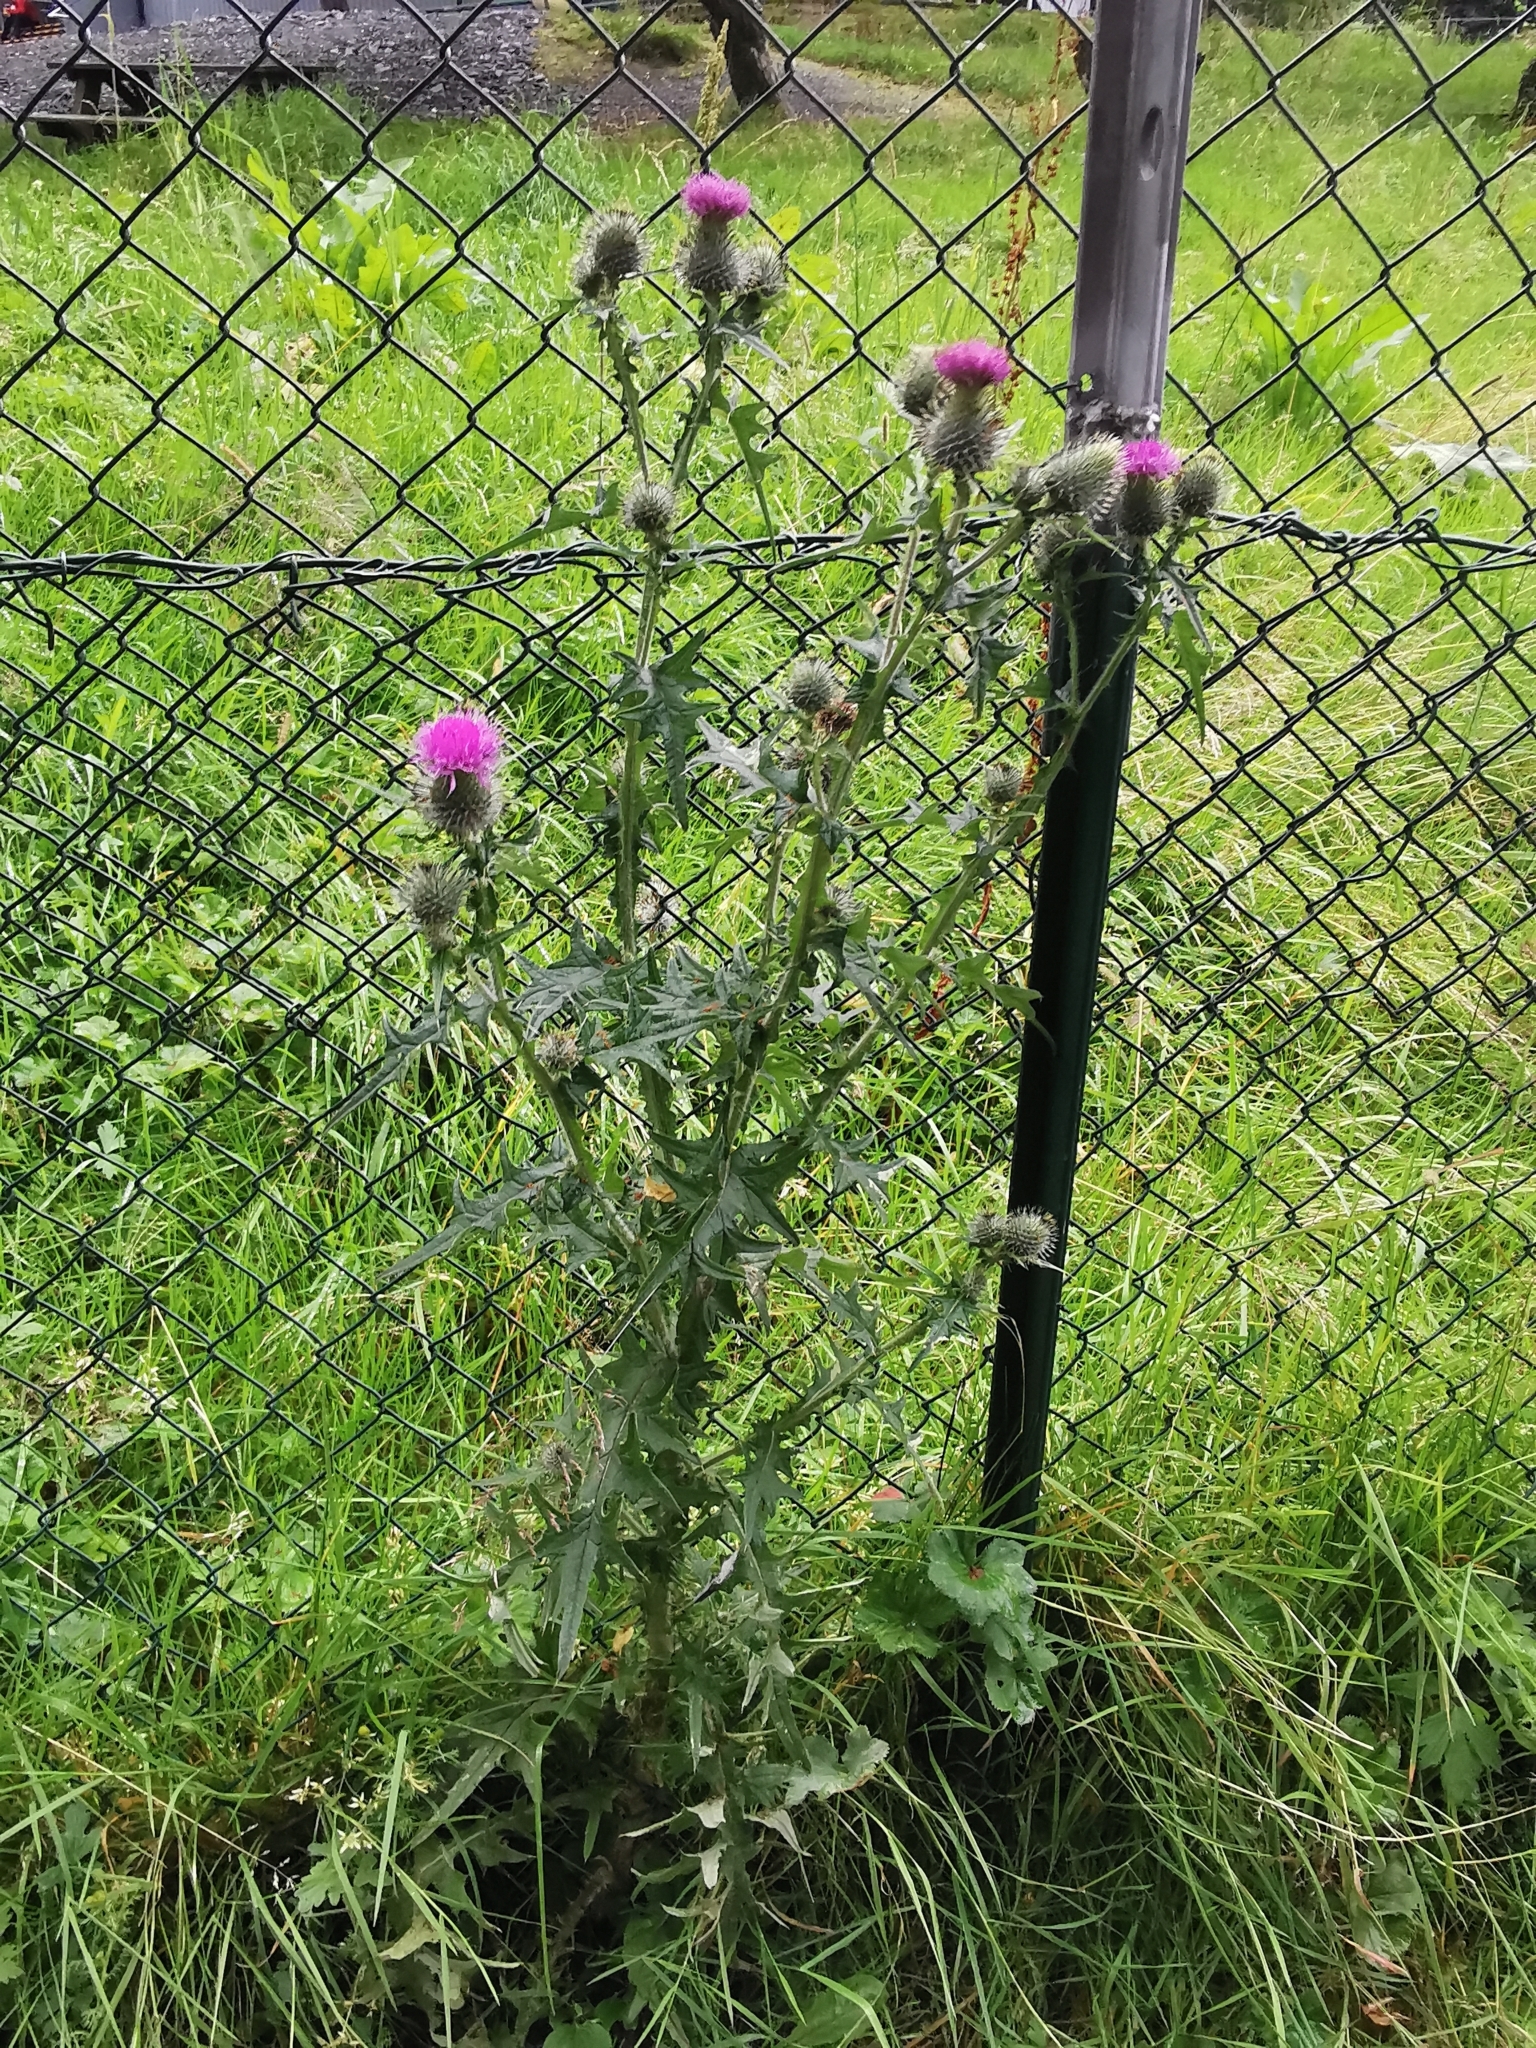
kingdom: Plantae
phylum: Tracheophyta
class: Magnoliopsida
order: Asterales
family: Asteraceae
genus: Cirsium
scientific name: Cirsium vulgare
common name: Bull thistle
